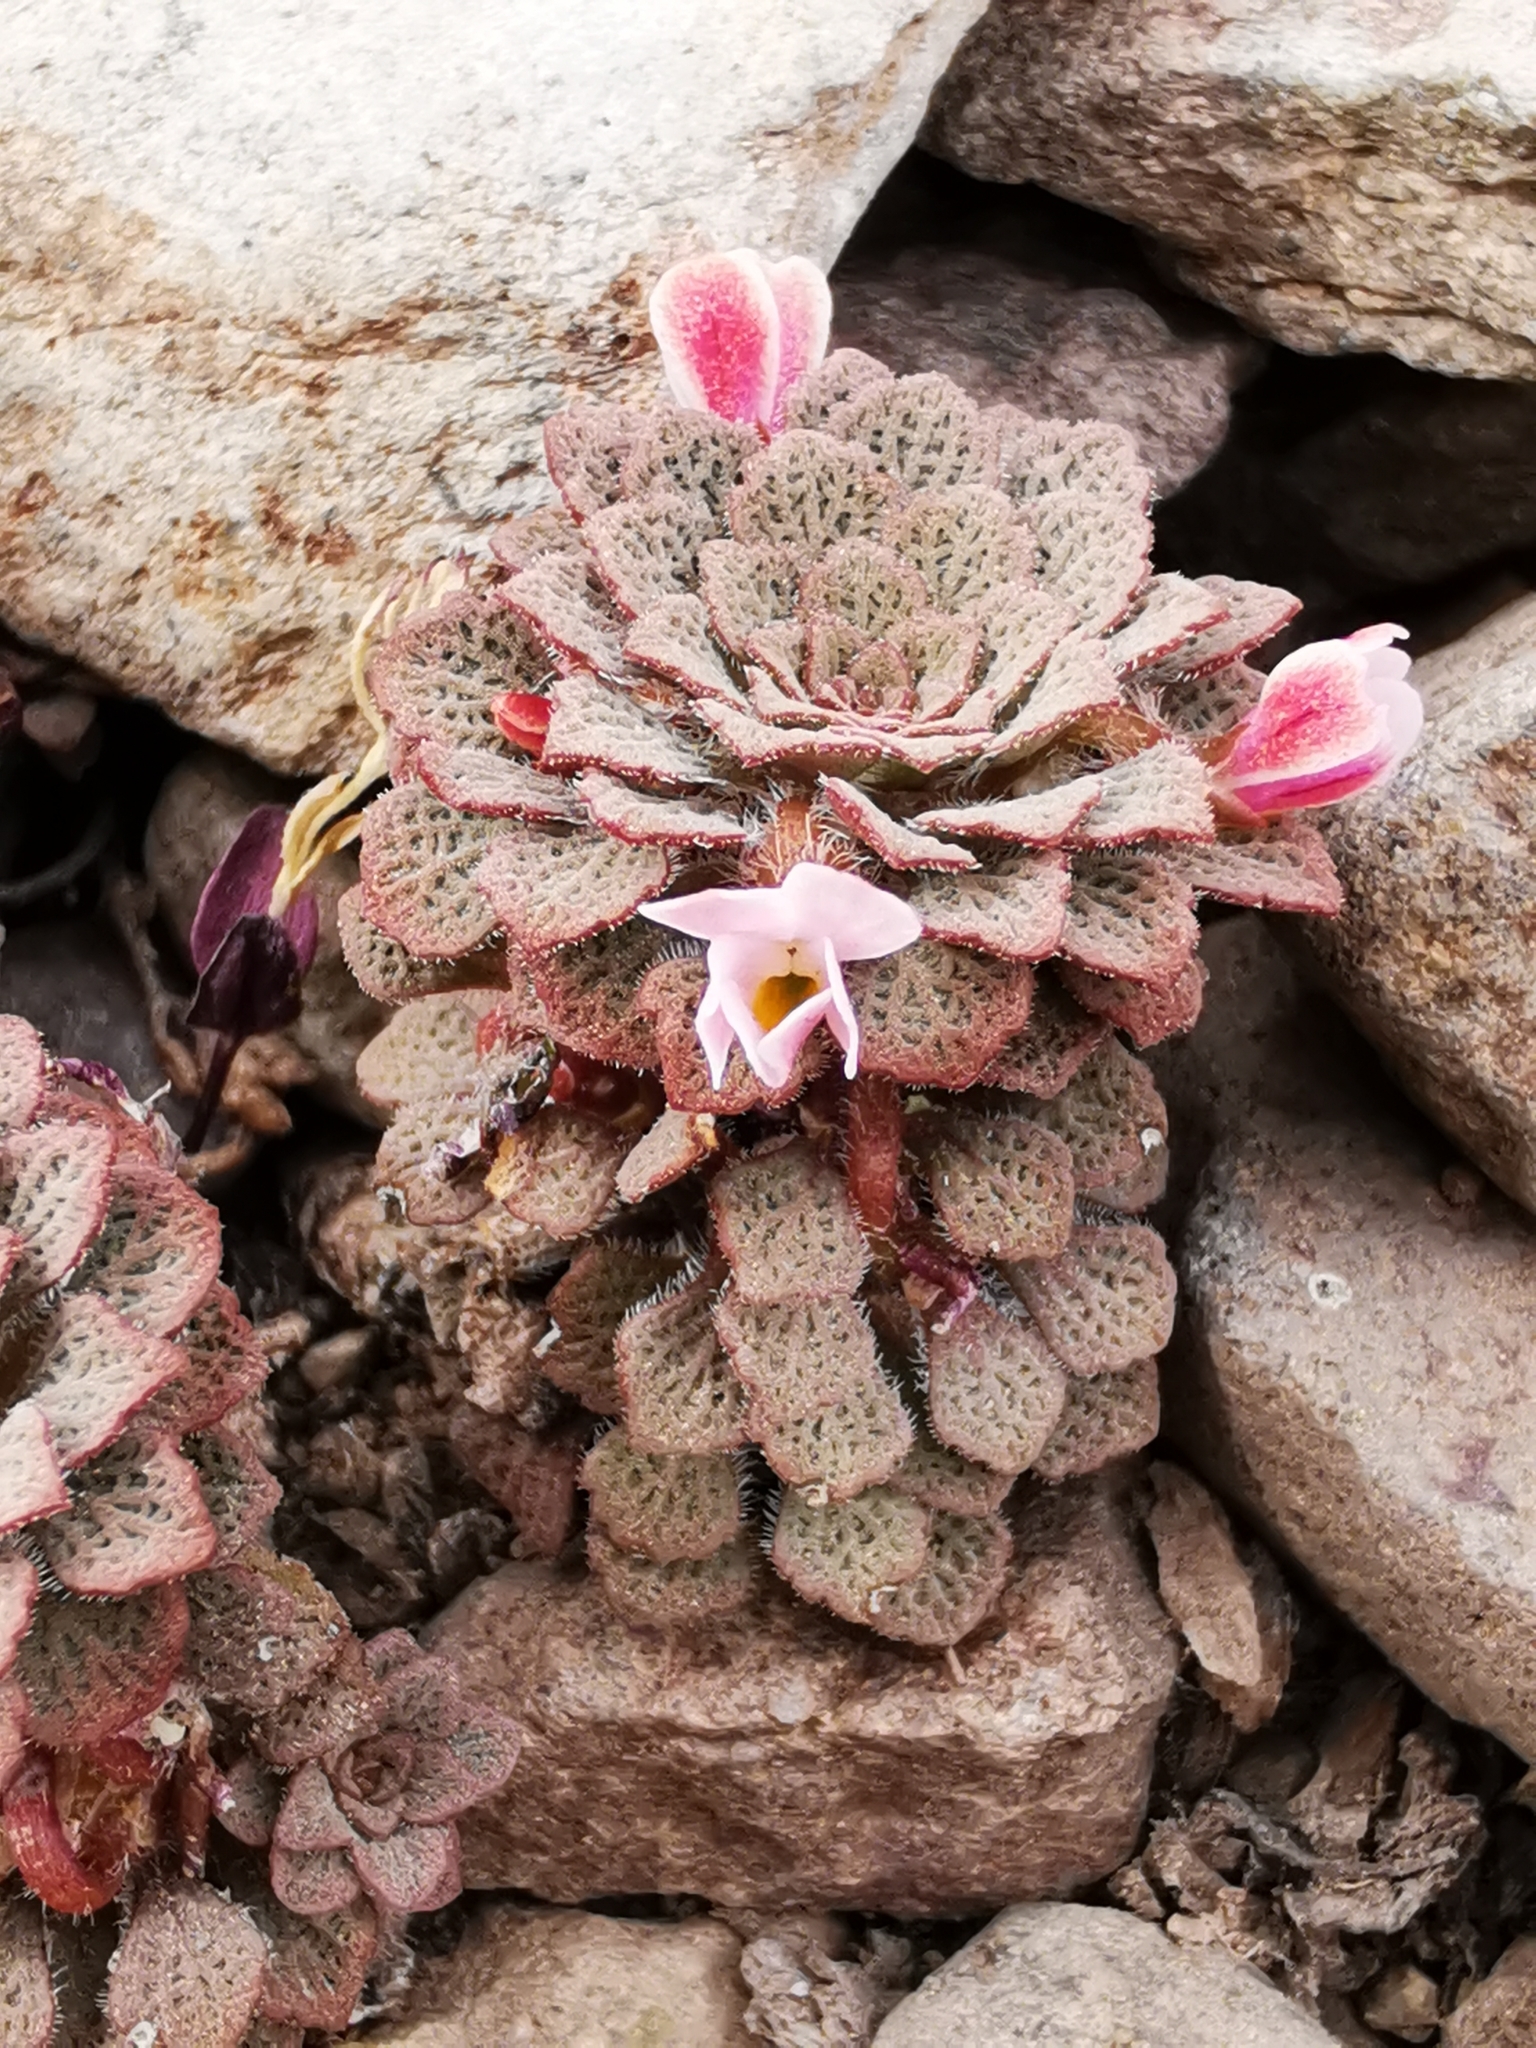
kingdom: Plantae
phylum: Tracheophyta
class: Magnoliopsida
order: Malpighiales
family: Violaceae
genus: Viola
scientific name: Viola
